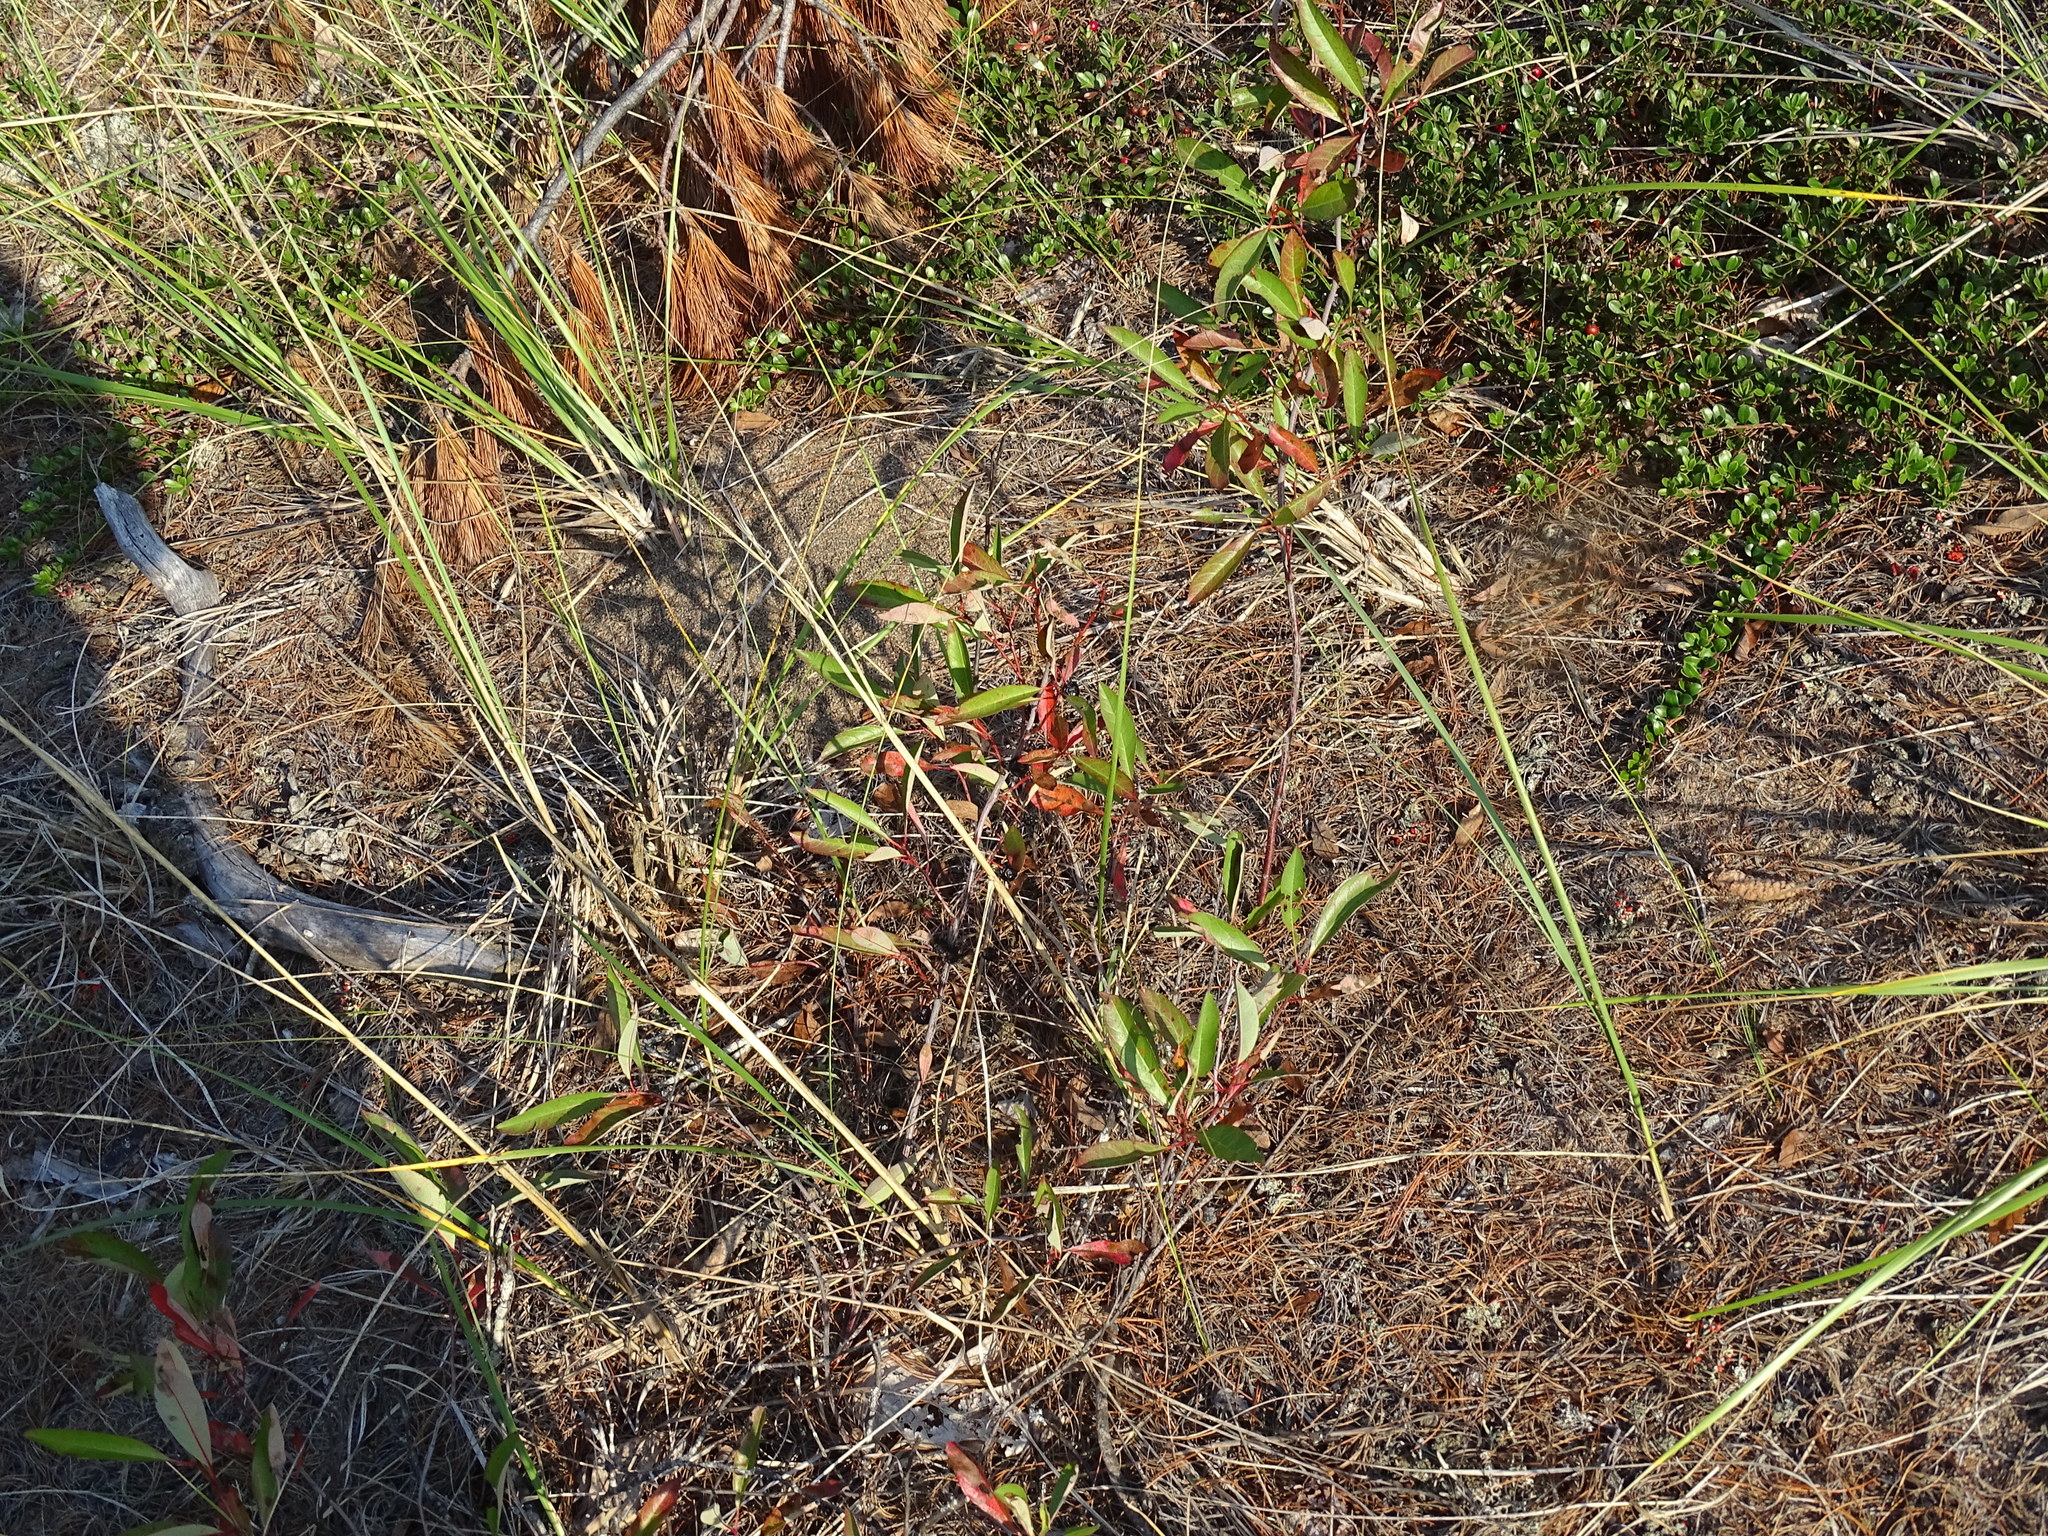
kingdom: Plantae
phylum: Tracheophyta
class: Magnoliopsida
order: Rosales
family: Rosaceae
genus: Prunus
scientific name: Prunus pumila
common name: Dwarf cherry
